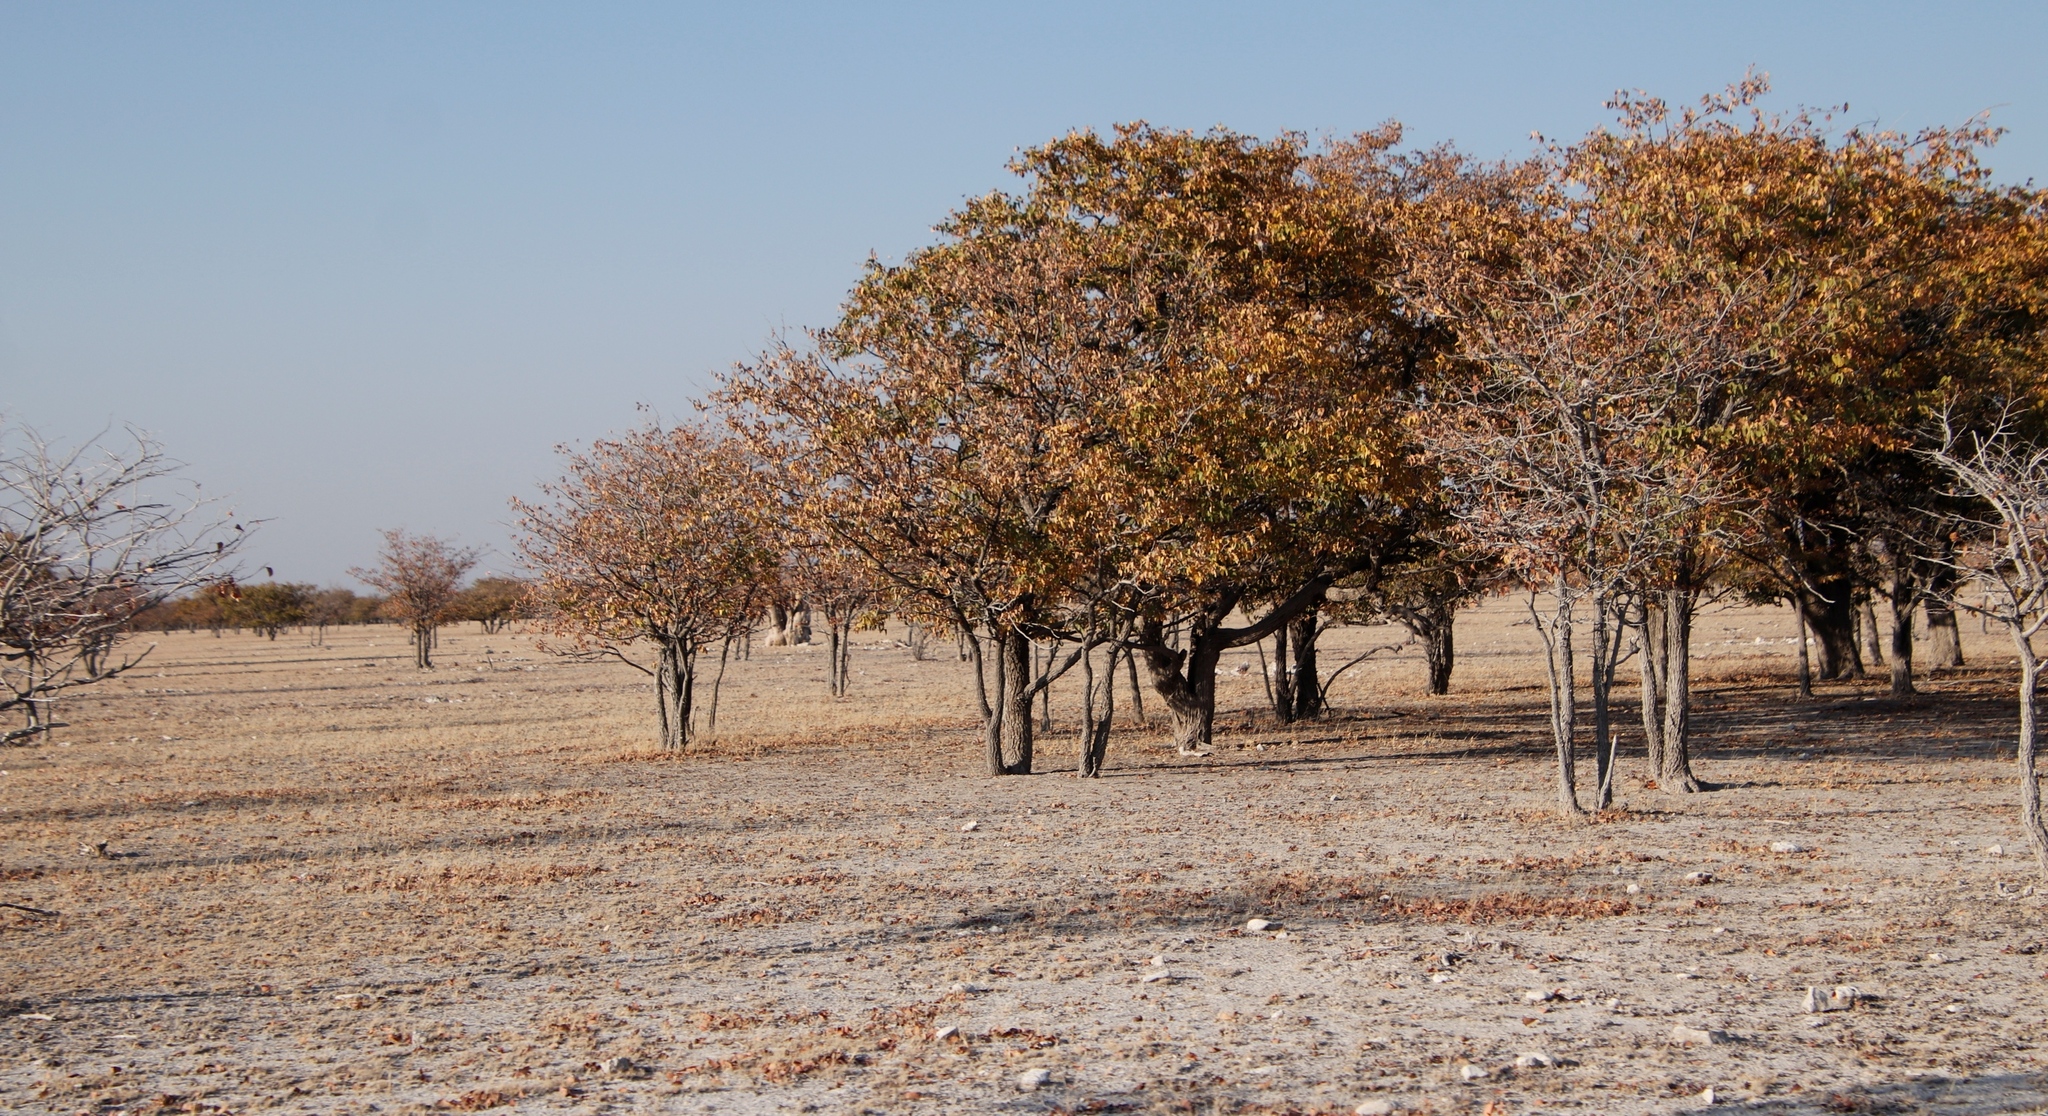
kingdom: Plantae
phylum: Tracheophyta
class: Magnoliopsida
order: Fabales
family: Fabaceae
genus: Colophospermum
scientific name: Colophospermum mopane
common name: Mopane
